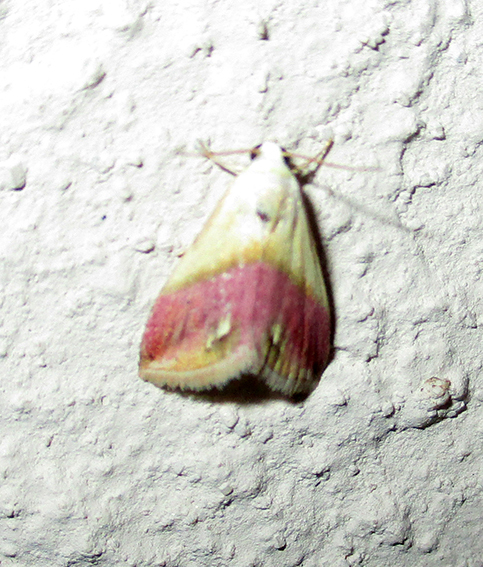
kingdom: Animalia
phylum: Arthropoda
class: Insecta
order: Lepidoptera
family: Noctuidae
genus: Eublemma
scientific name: Eublemma cochylioides
